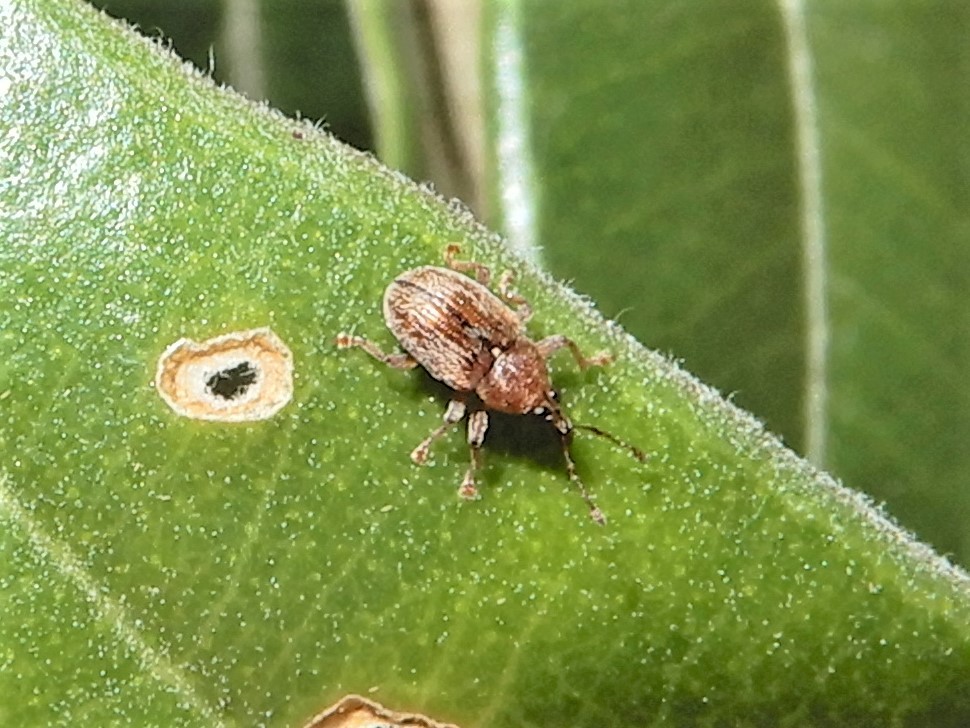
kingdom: Animalia
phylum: Arthropoda
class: Insecta
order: Coleoptera
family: Curculionidae
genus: Neomycta
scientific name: Neomycta rubida
